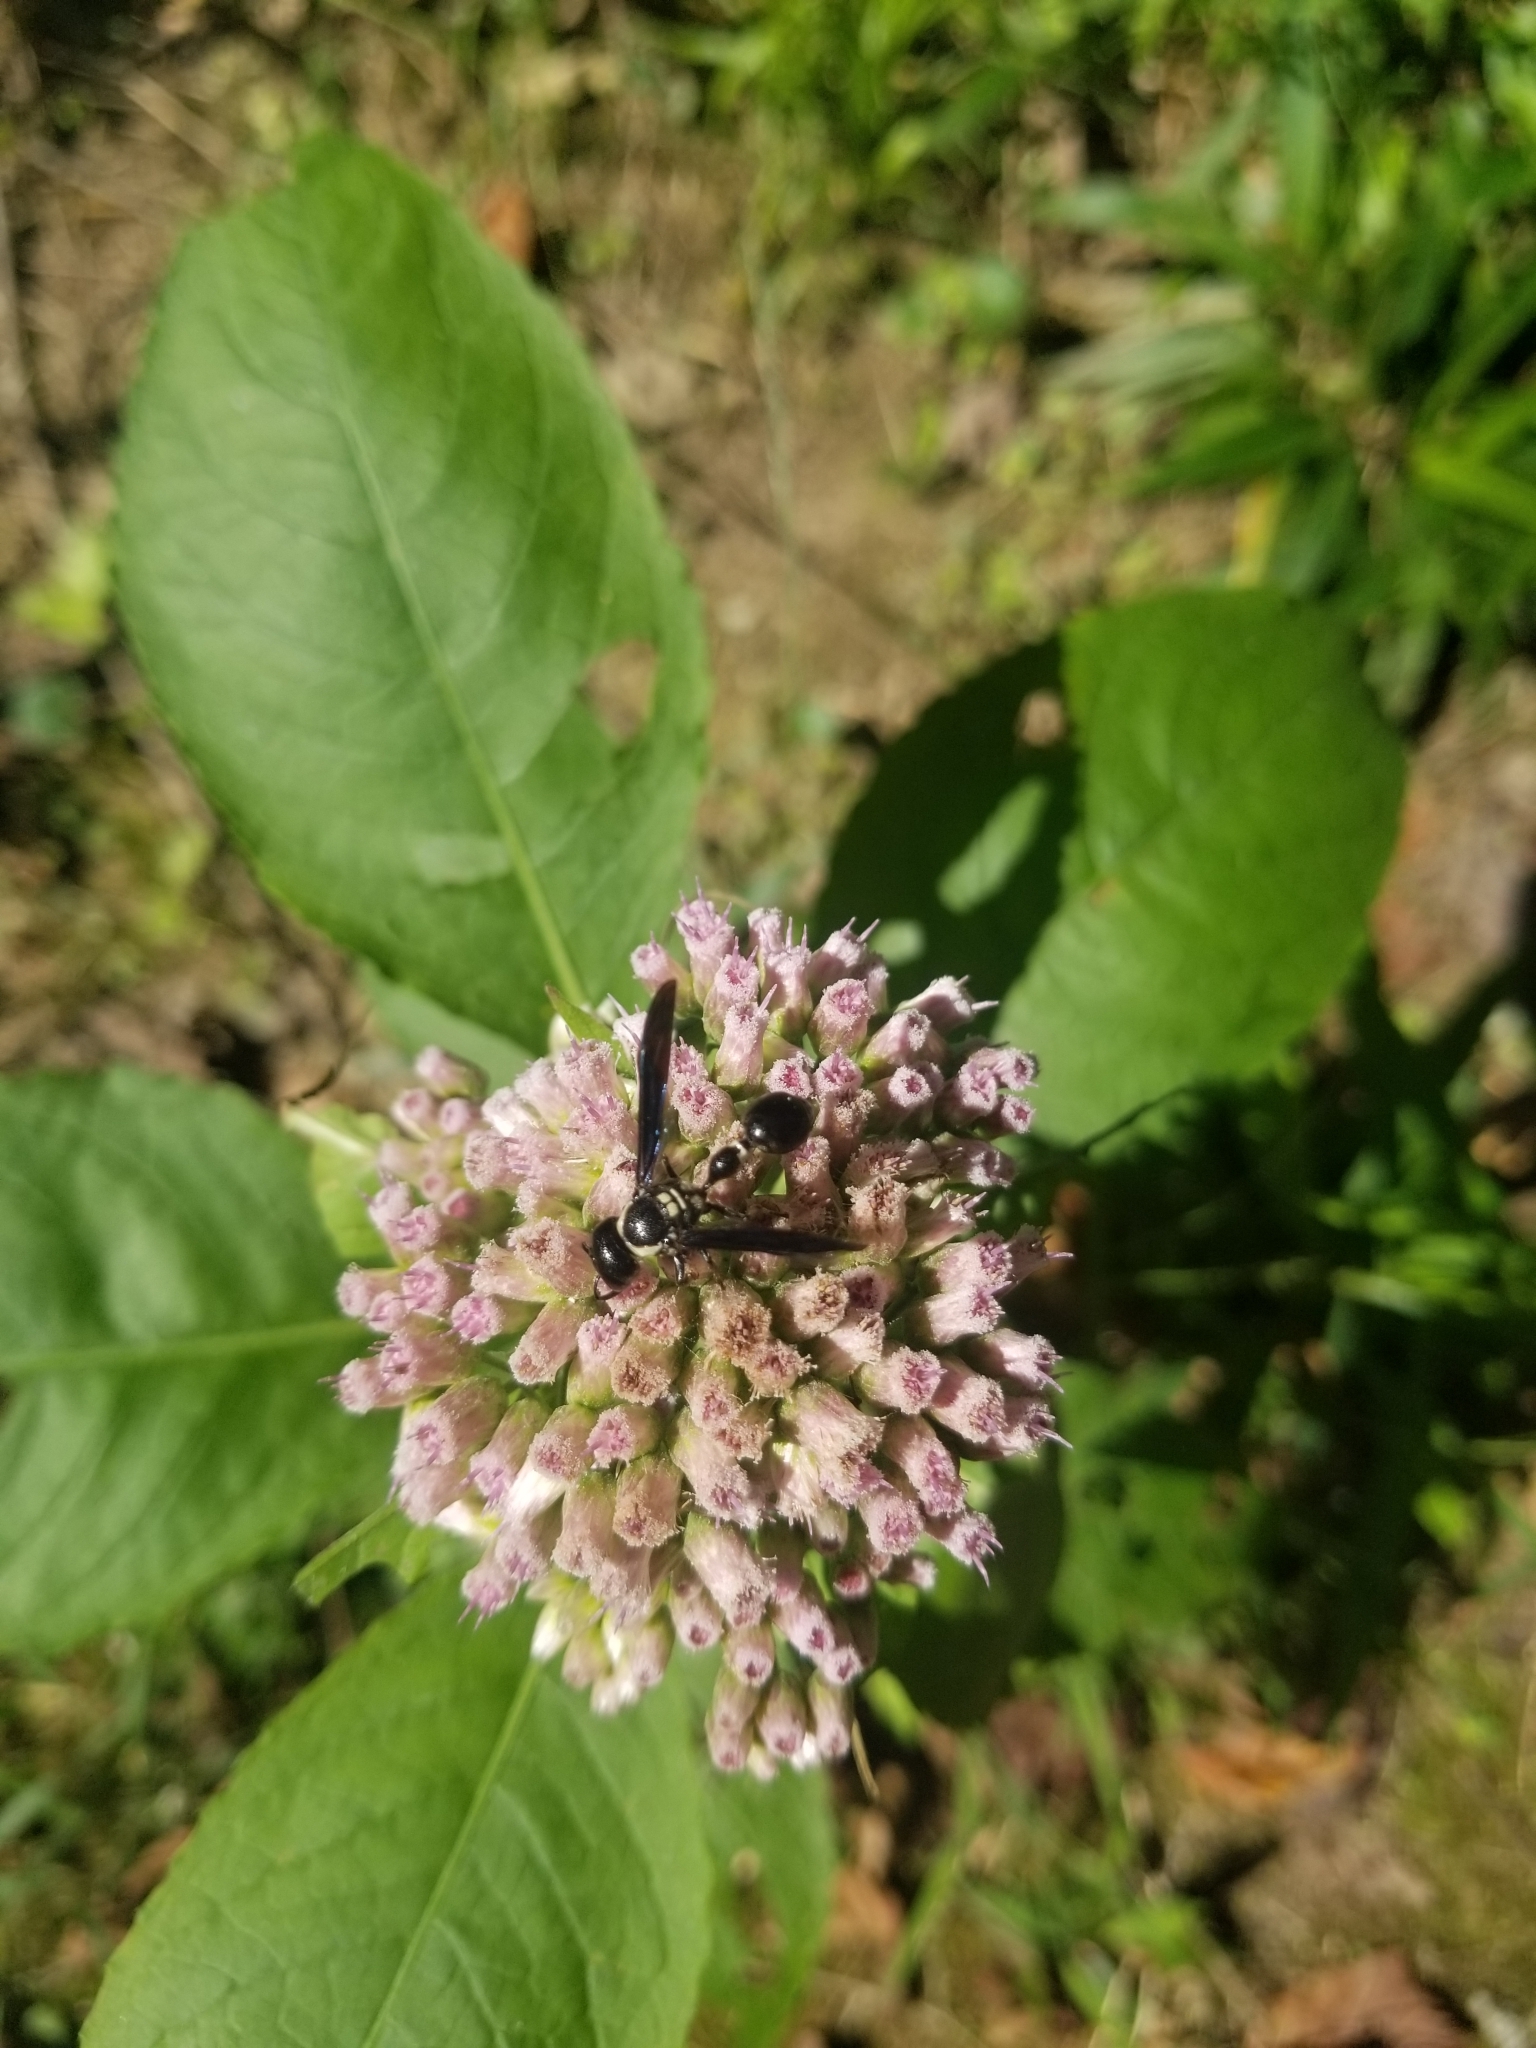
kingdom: Plantae
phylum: Tracheophyta
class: Magnoliopsida
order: Asterales
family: Asteraceae
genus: Pluchea
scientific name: Pluchea camphorata
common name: Camphor pluchea
